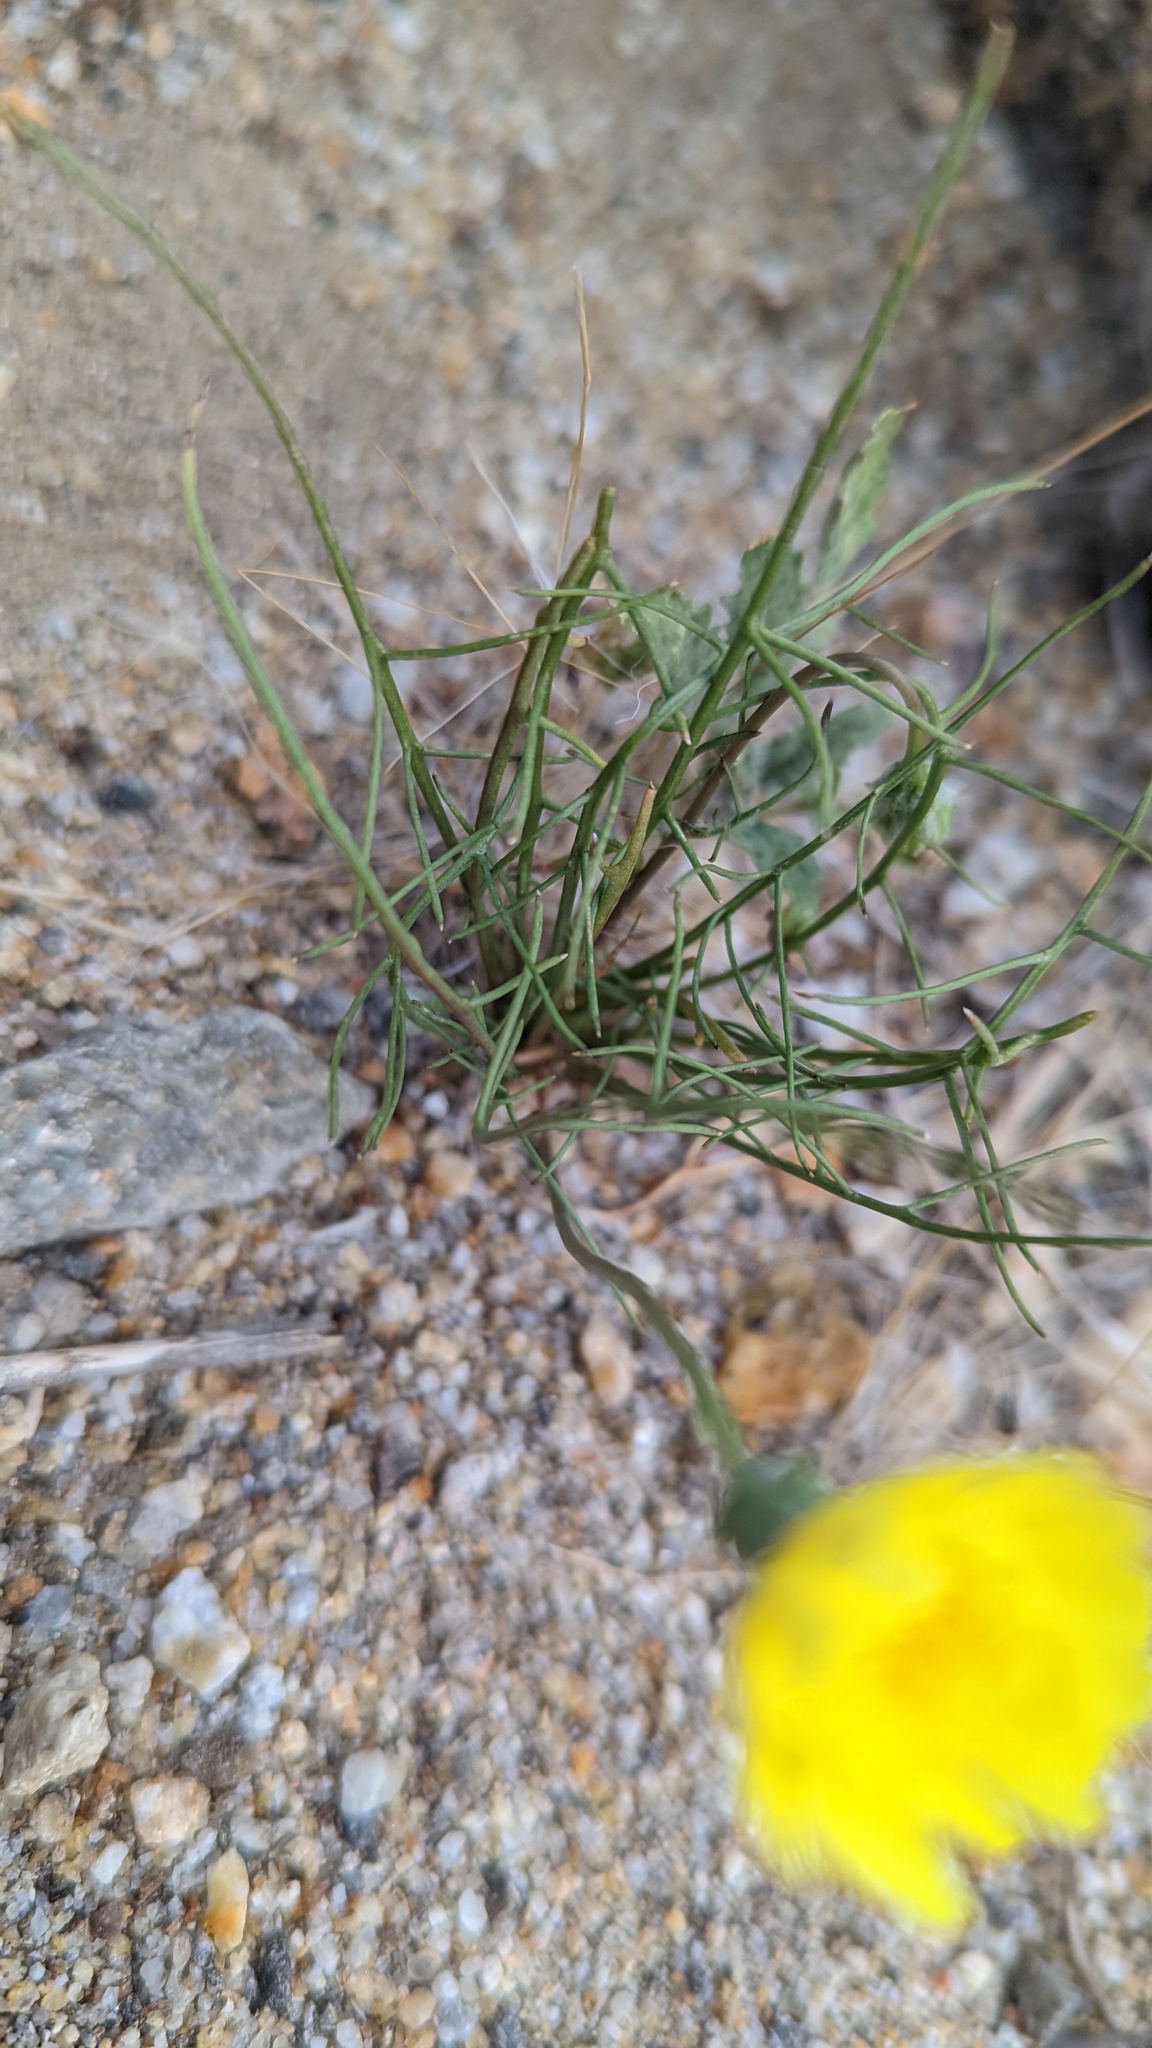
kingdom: Plantae
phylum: Tracheophyta
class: Magnoliopsida
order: Asterales
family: Asteraceae
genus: Malacothrix
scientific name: Malacothrix glabrata
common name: Smooth desert-dandelion
